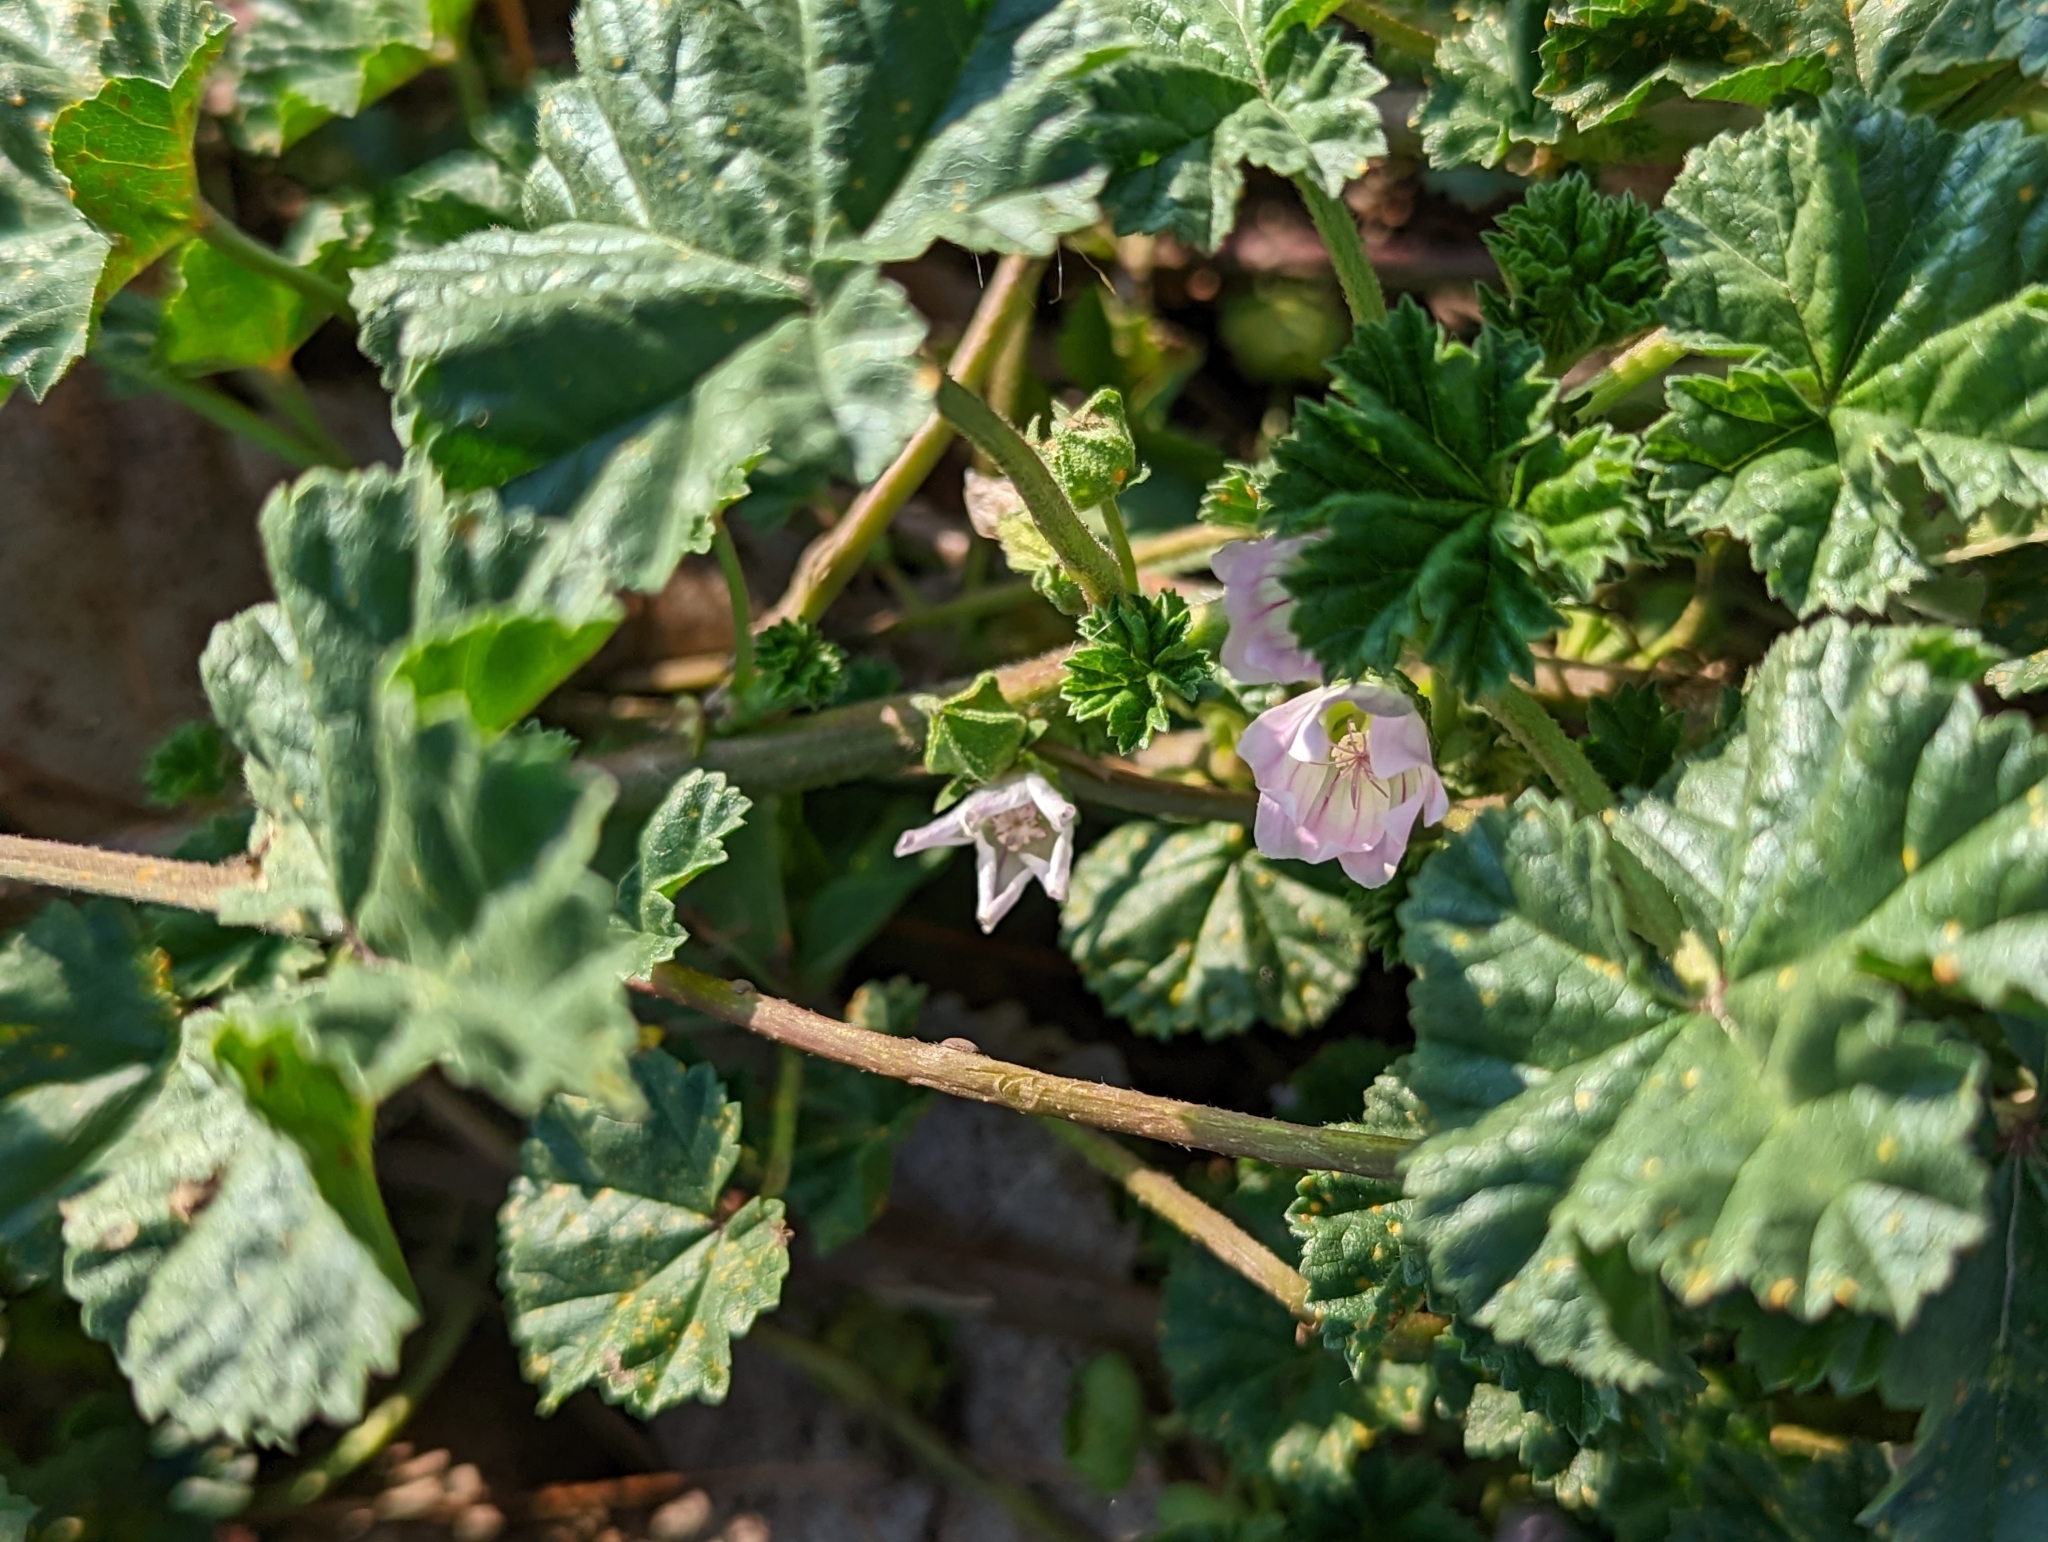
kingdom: Plantae
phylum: Tracheophyta
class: Magnoliopsida
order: Malvales
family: Malvaceae
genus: Malva
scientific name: Malva neglecta
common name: Common mallow
